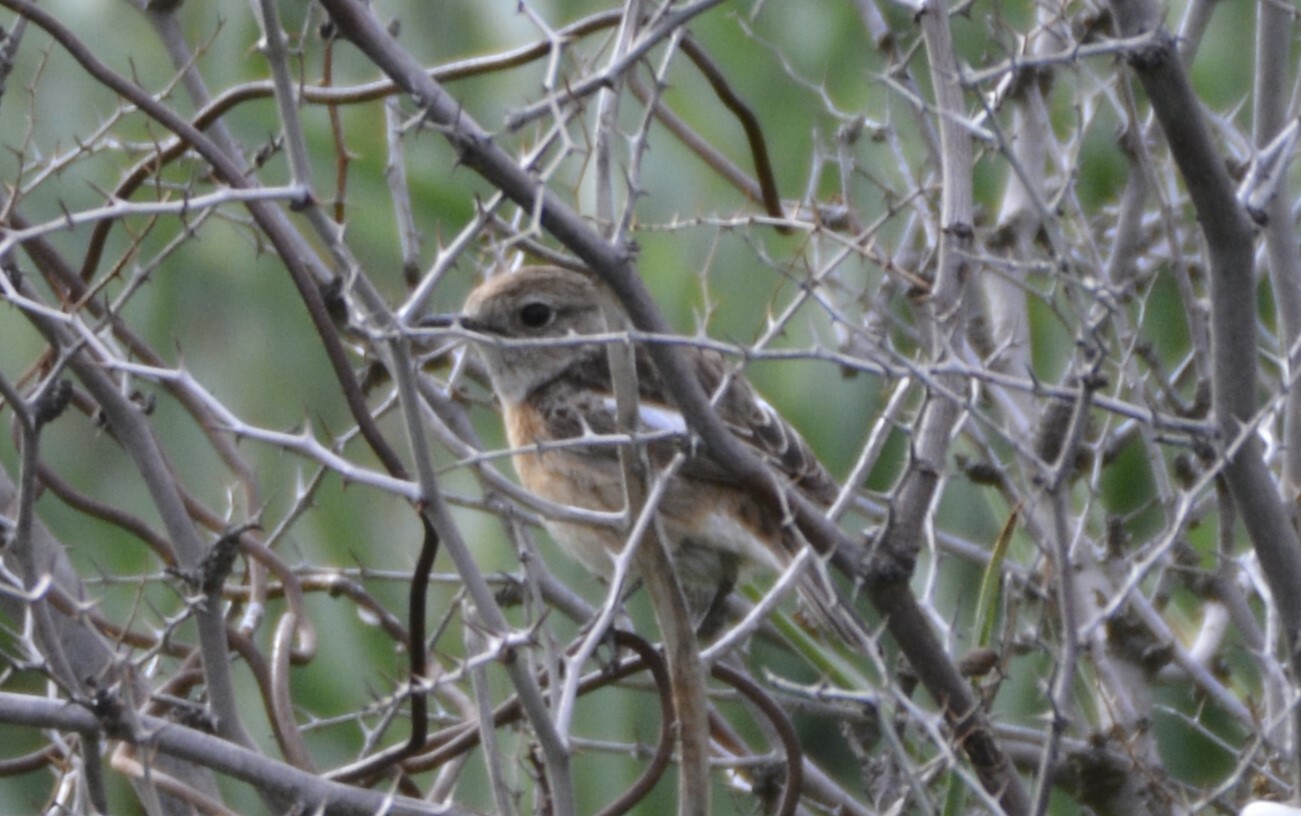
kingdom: Animalia
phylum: Chordata
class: Aves
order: Passeriformes
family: Muscicapidae
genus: Saxicola
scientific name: Saxicola rubicola
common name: European stonechat
